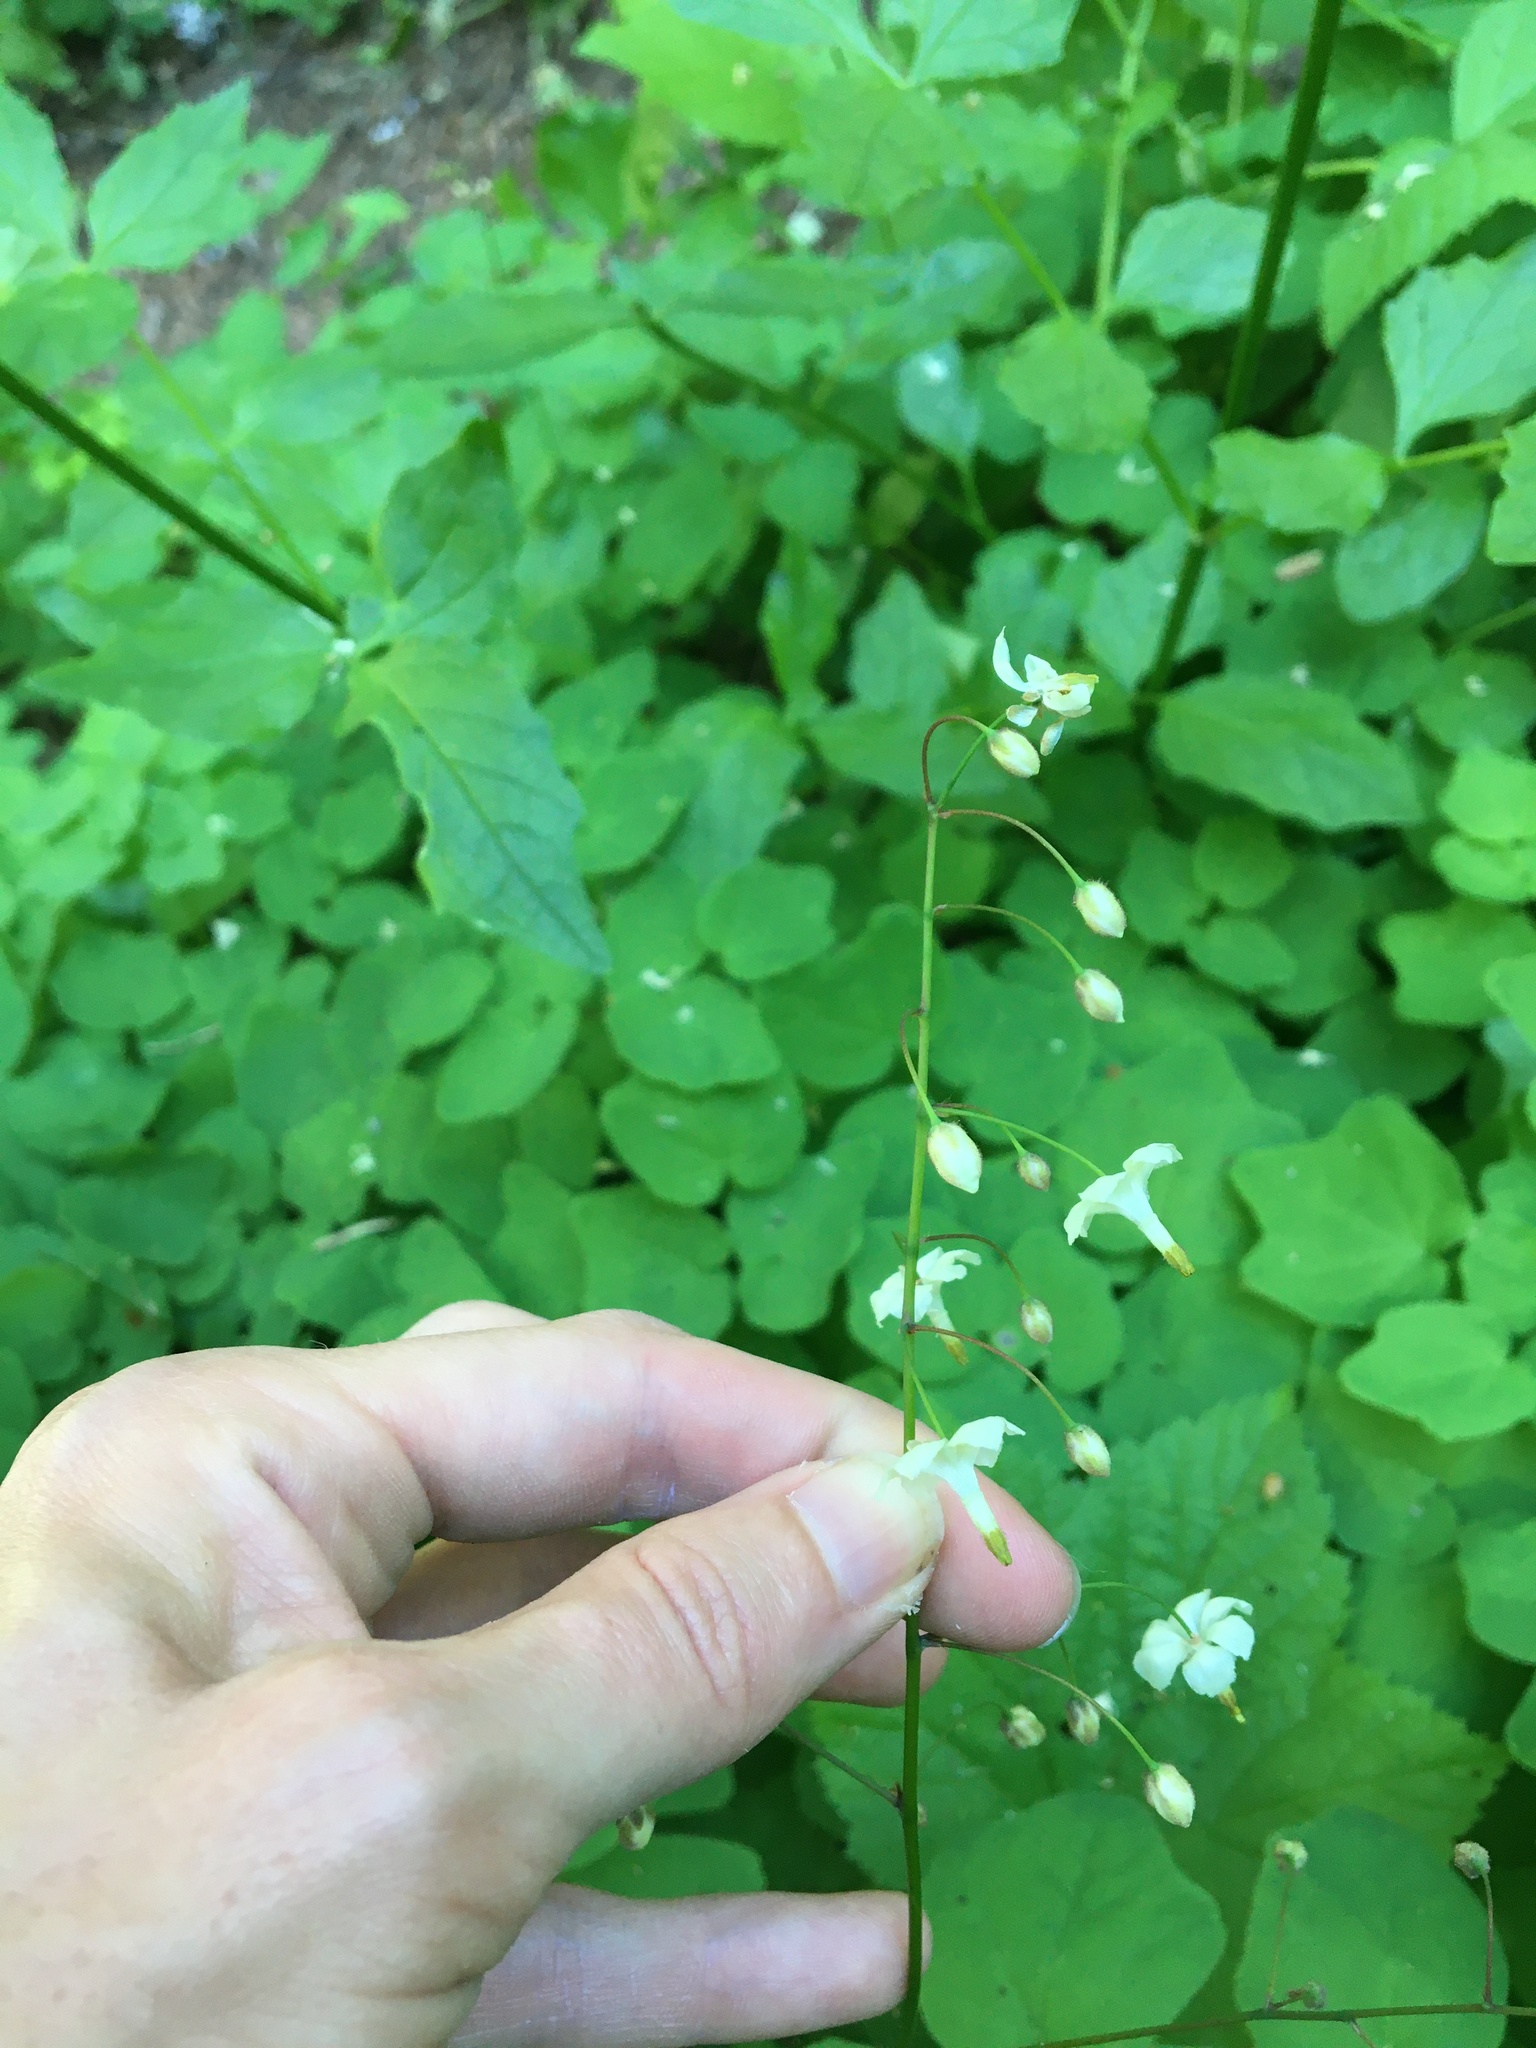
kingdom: Plantae
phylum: Tracheophyta
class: Magnoliopsida
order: Ranunculales
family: Berberidaceae
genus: Vancouveria
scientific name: Vancouveria hexandra
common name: Northern inside-out-flower
